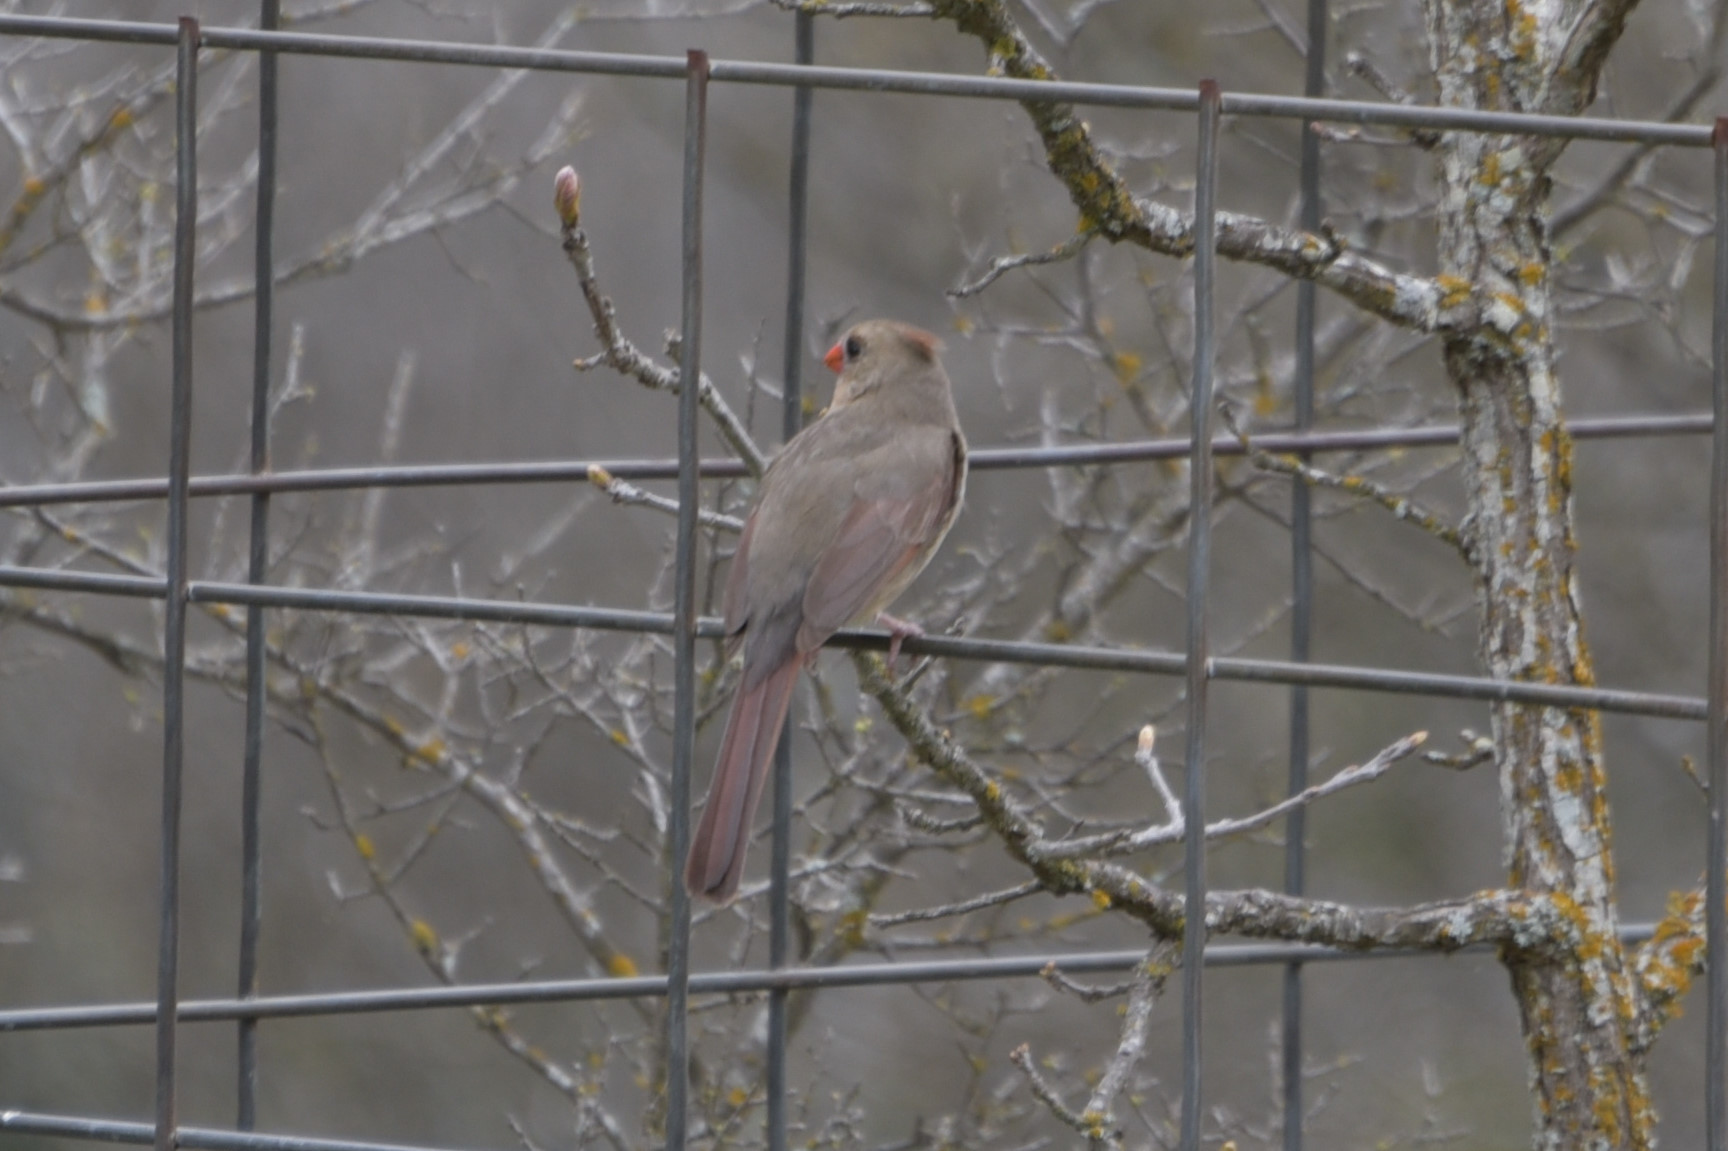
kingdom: Animalia
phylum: Chordata
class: Aves
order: Passeriformes
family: Cardinalidae
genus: Cardinalis
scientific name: Cardinalis cardinalis
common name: Northern cardinal
